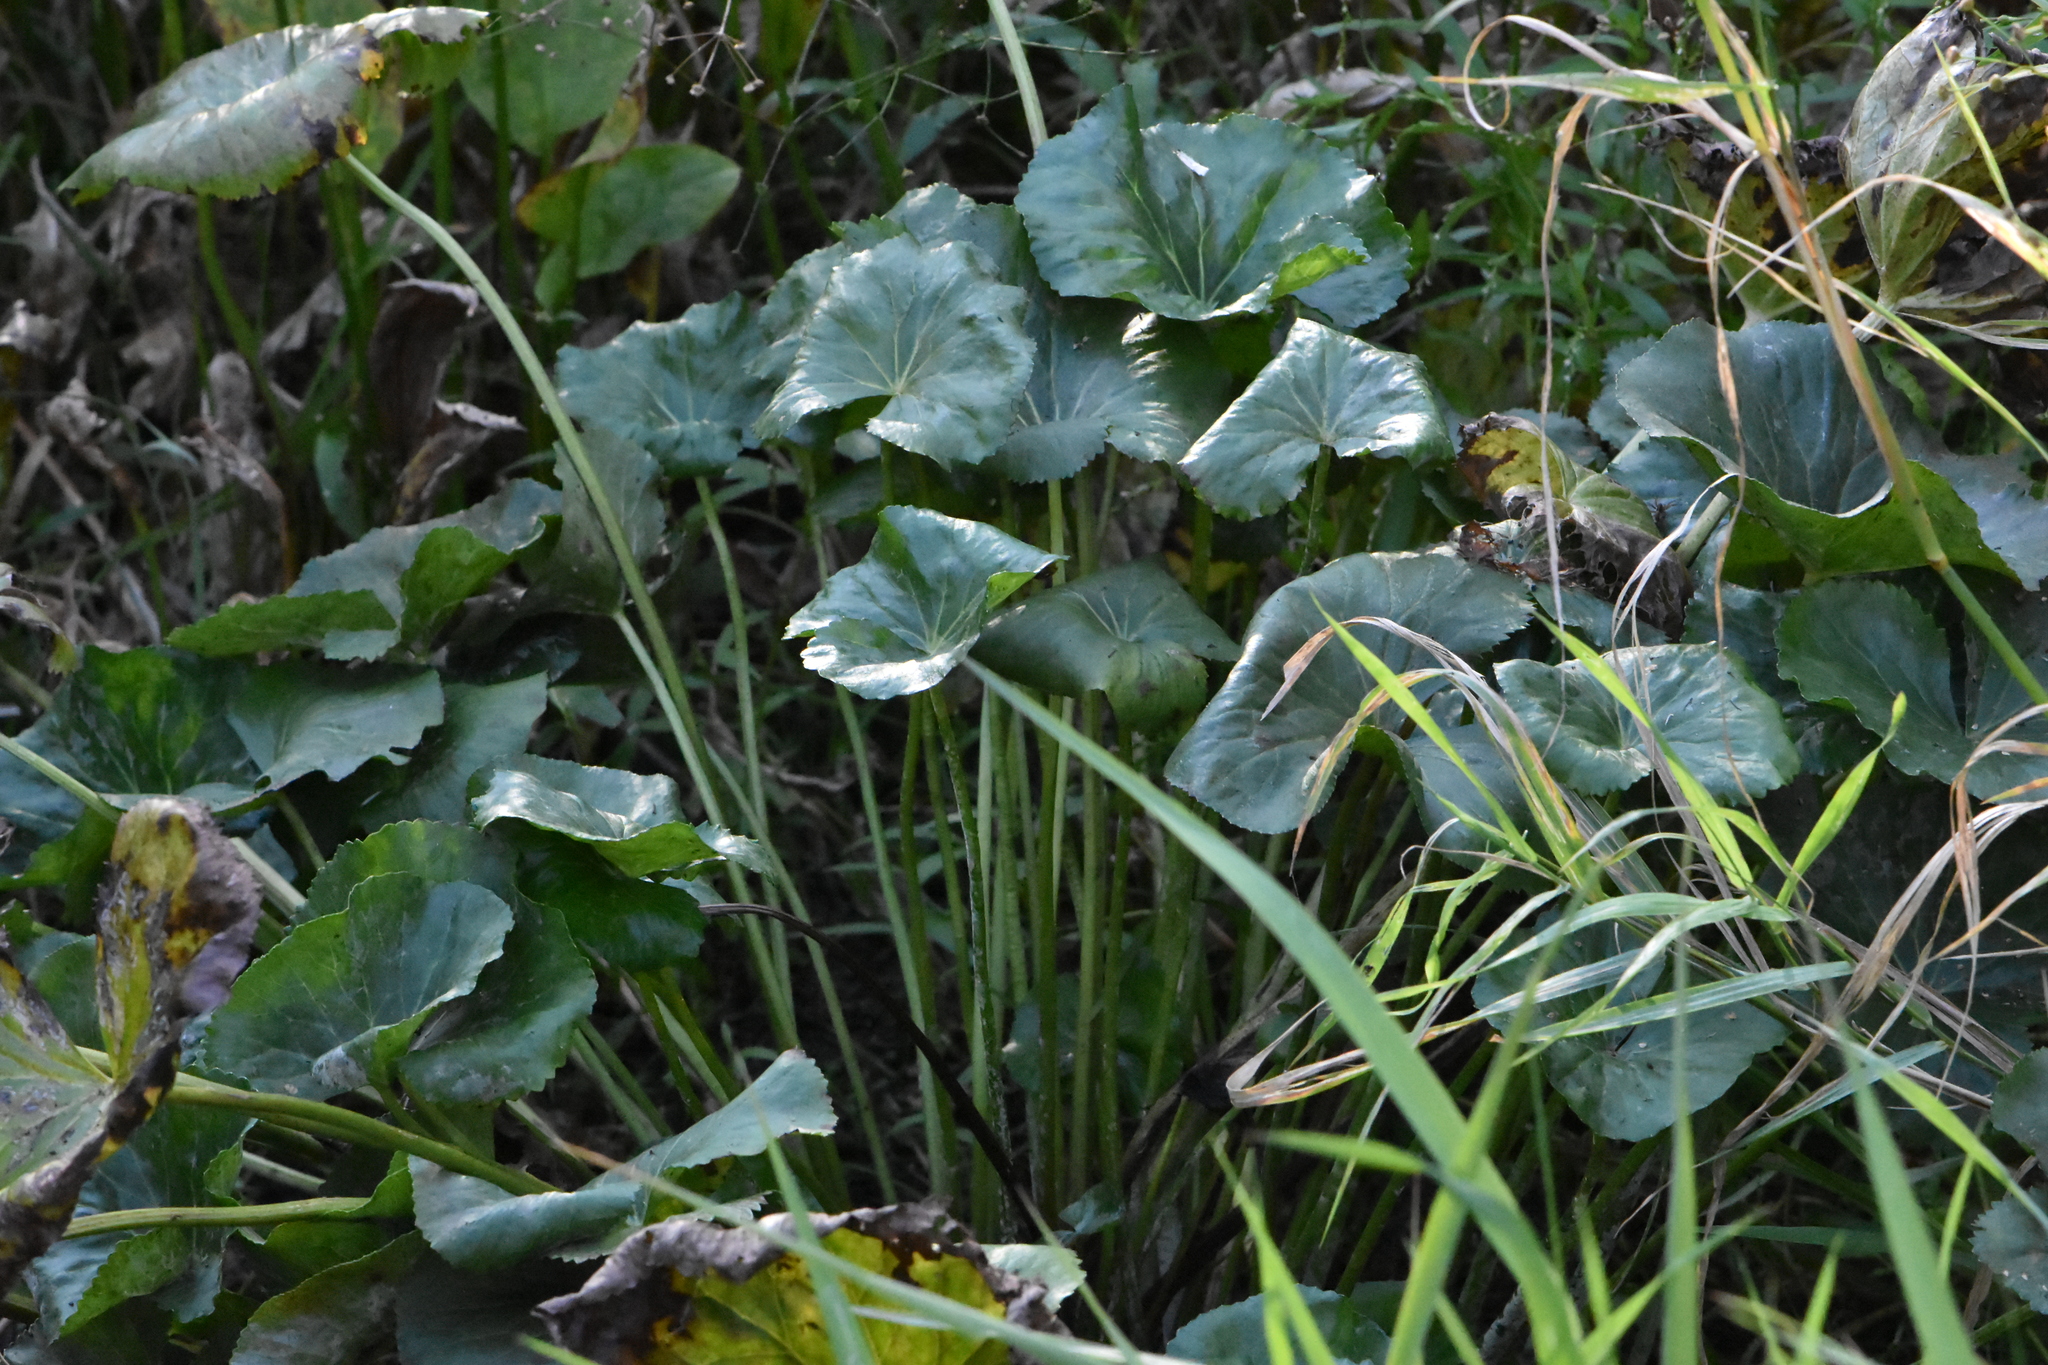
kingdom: Plantae
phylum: Tracheophyta
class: Magnoliopsida
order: Ranunculales
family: Ranunculaceae
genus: Caltha
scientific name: Caltha palustris
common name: Marsh marigold
